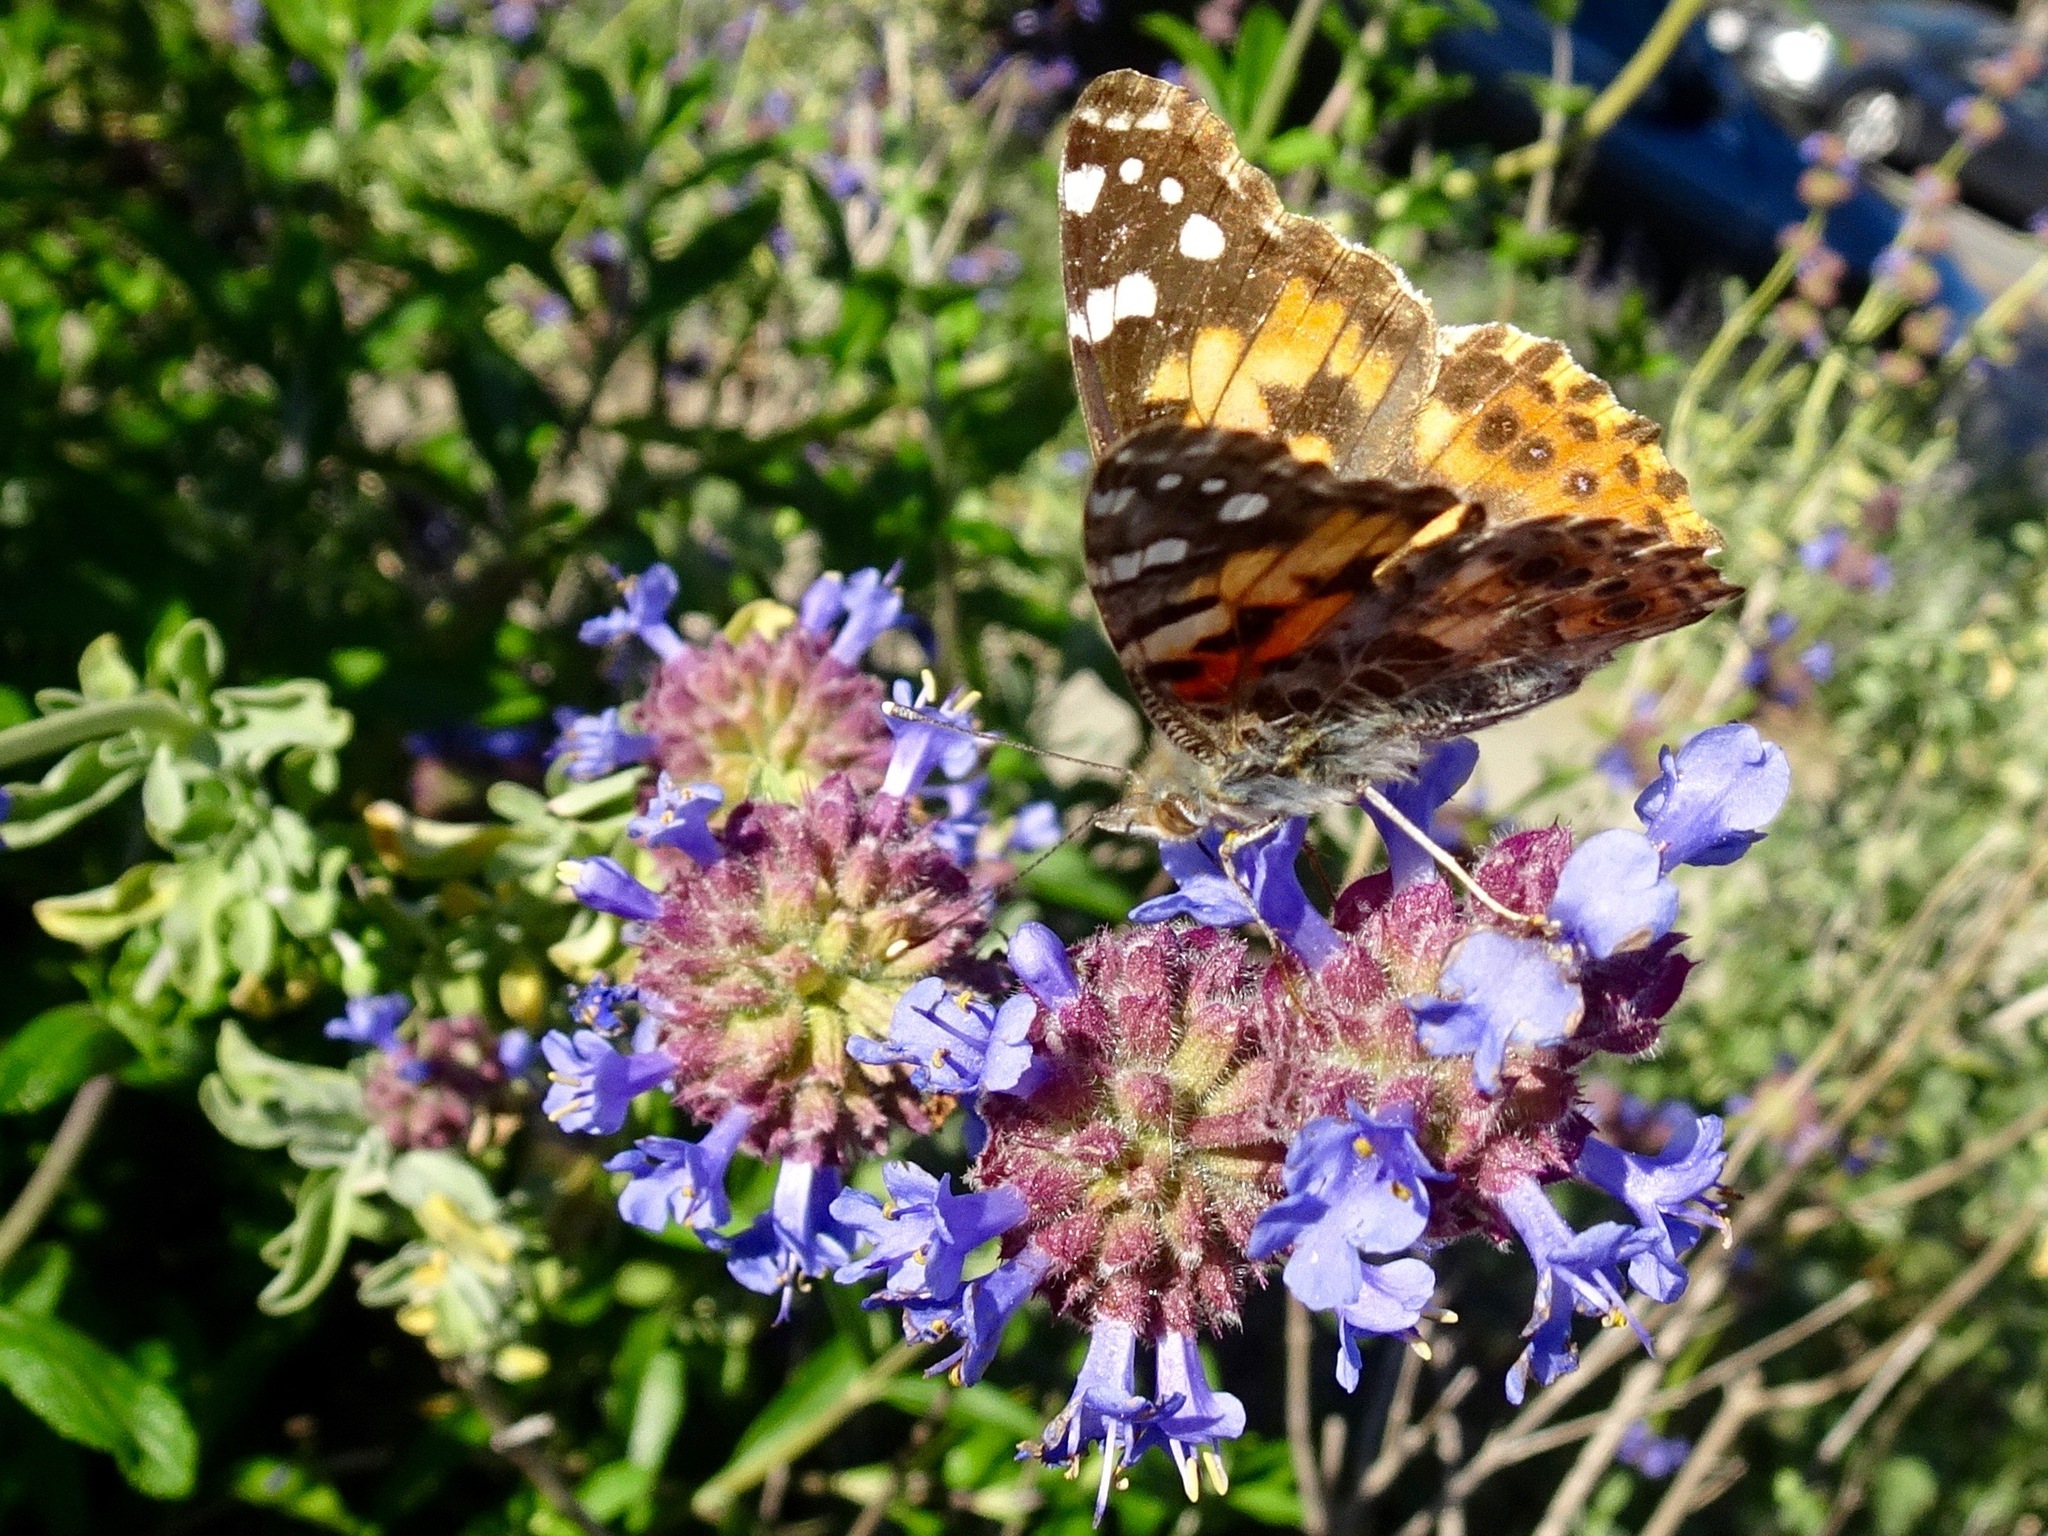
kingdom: Animalia
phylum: Arthropoda
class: Insecta
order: Lepidoptera
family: Nymphalidae
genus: Vanessa
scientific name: Vanessa cardui
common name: Painted lady
